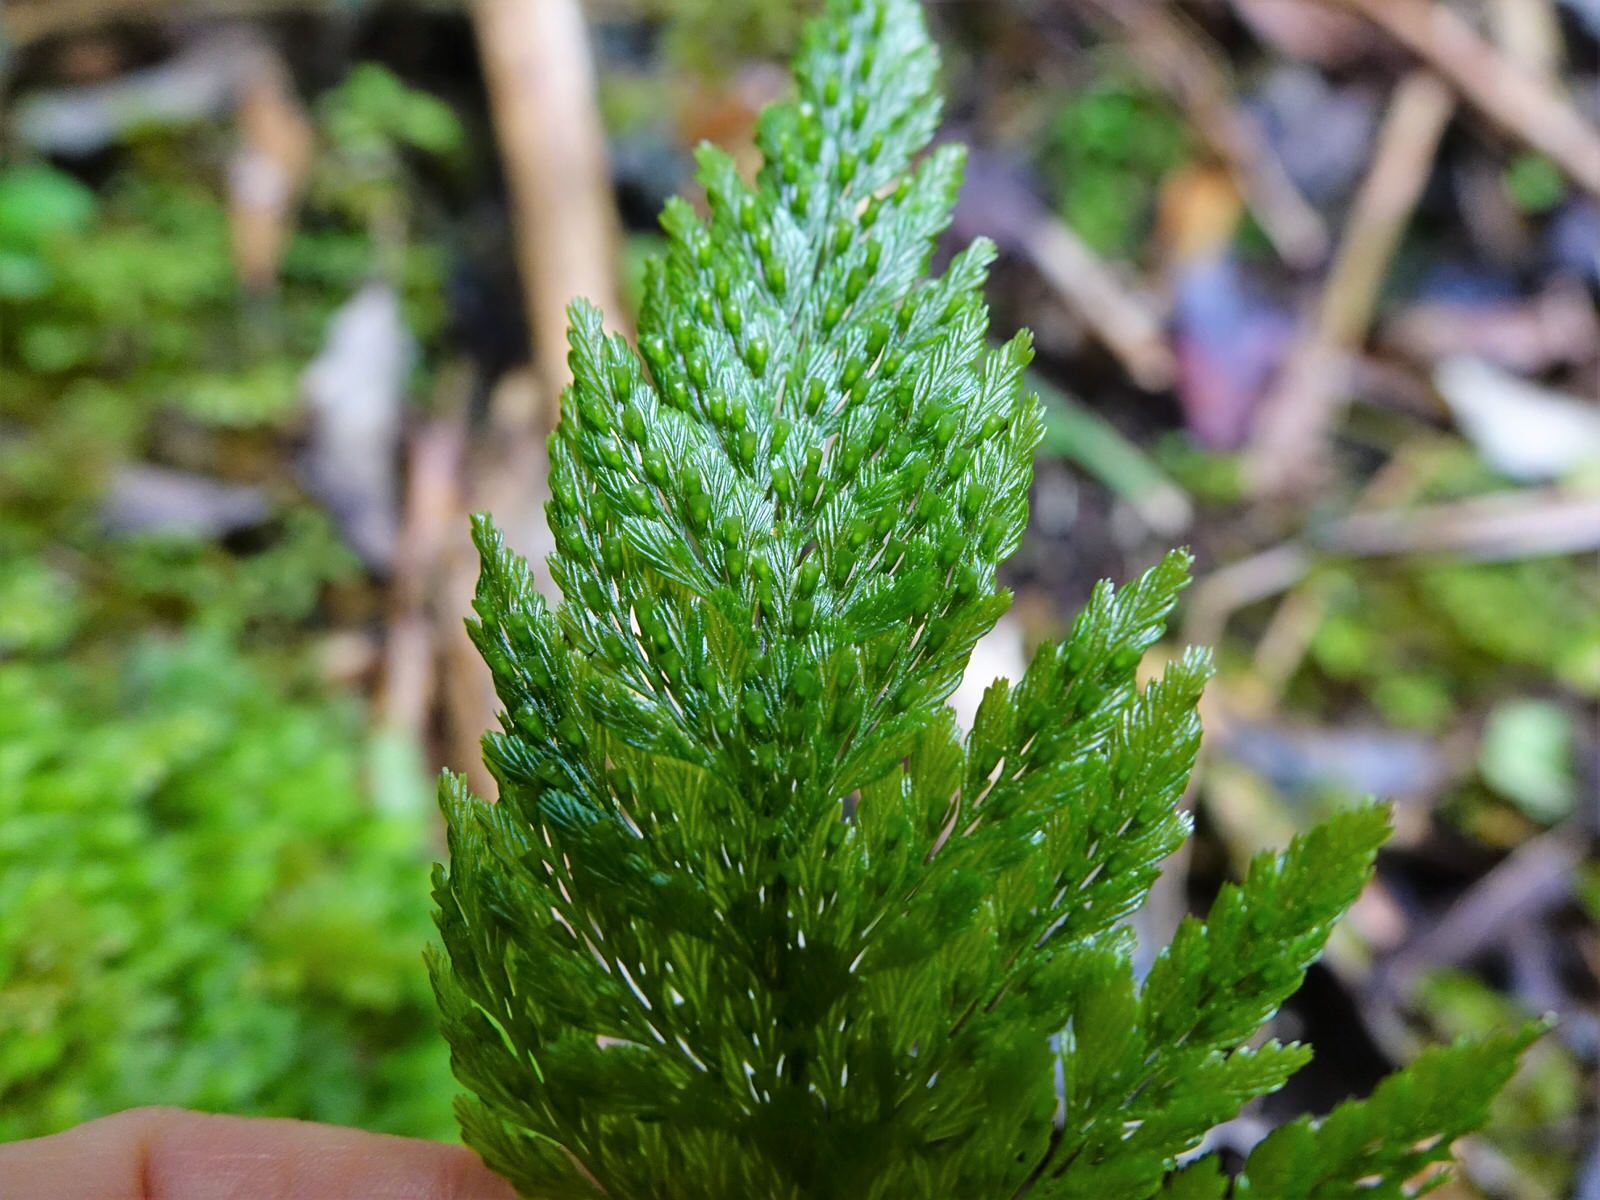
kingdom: Plantae
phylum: Tracheophyta
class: Polypodiopsida
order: Hymenophyllales
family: Hymenophyllaceae
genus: Abrodictyum
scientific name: Abrodictyum elongatum
